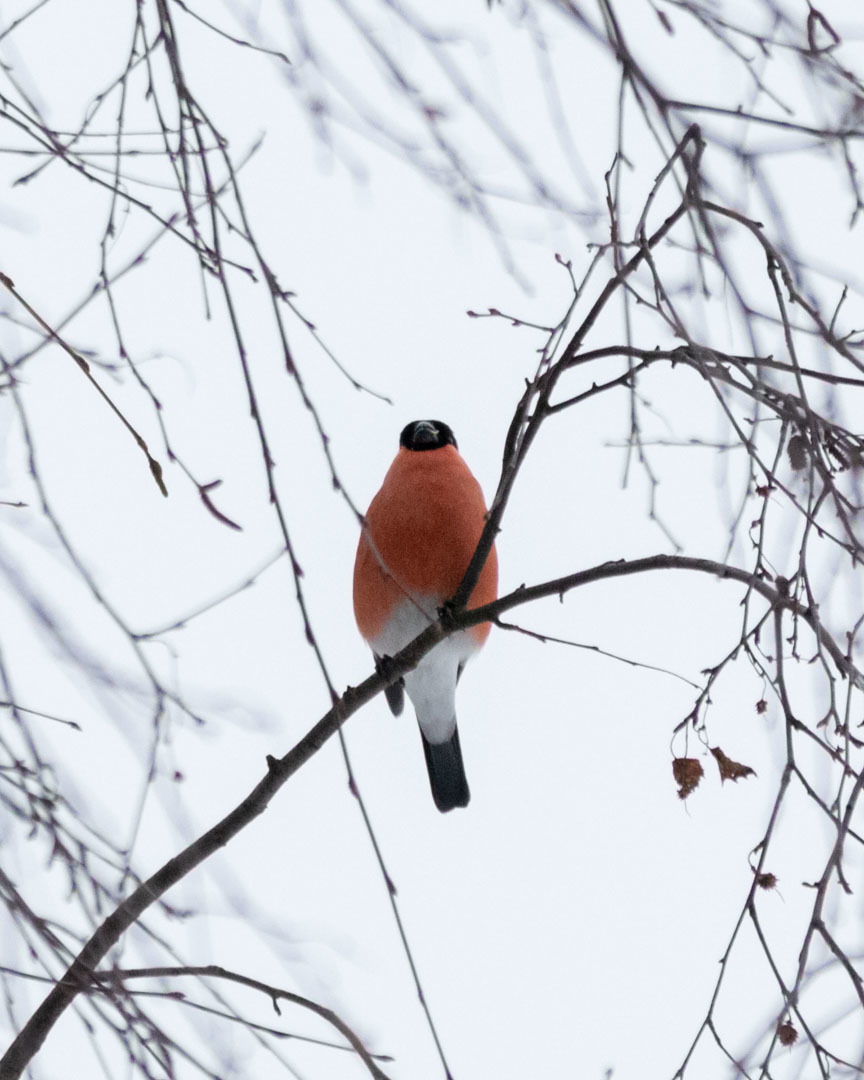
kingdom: Animalia
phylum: Chordata
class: Aves
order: Passeriformes
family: Fringillidae
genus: Pyrrhula
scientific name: Pyrrhula pyrrhula
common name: Eurasian bullfinch
